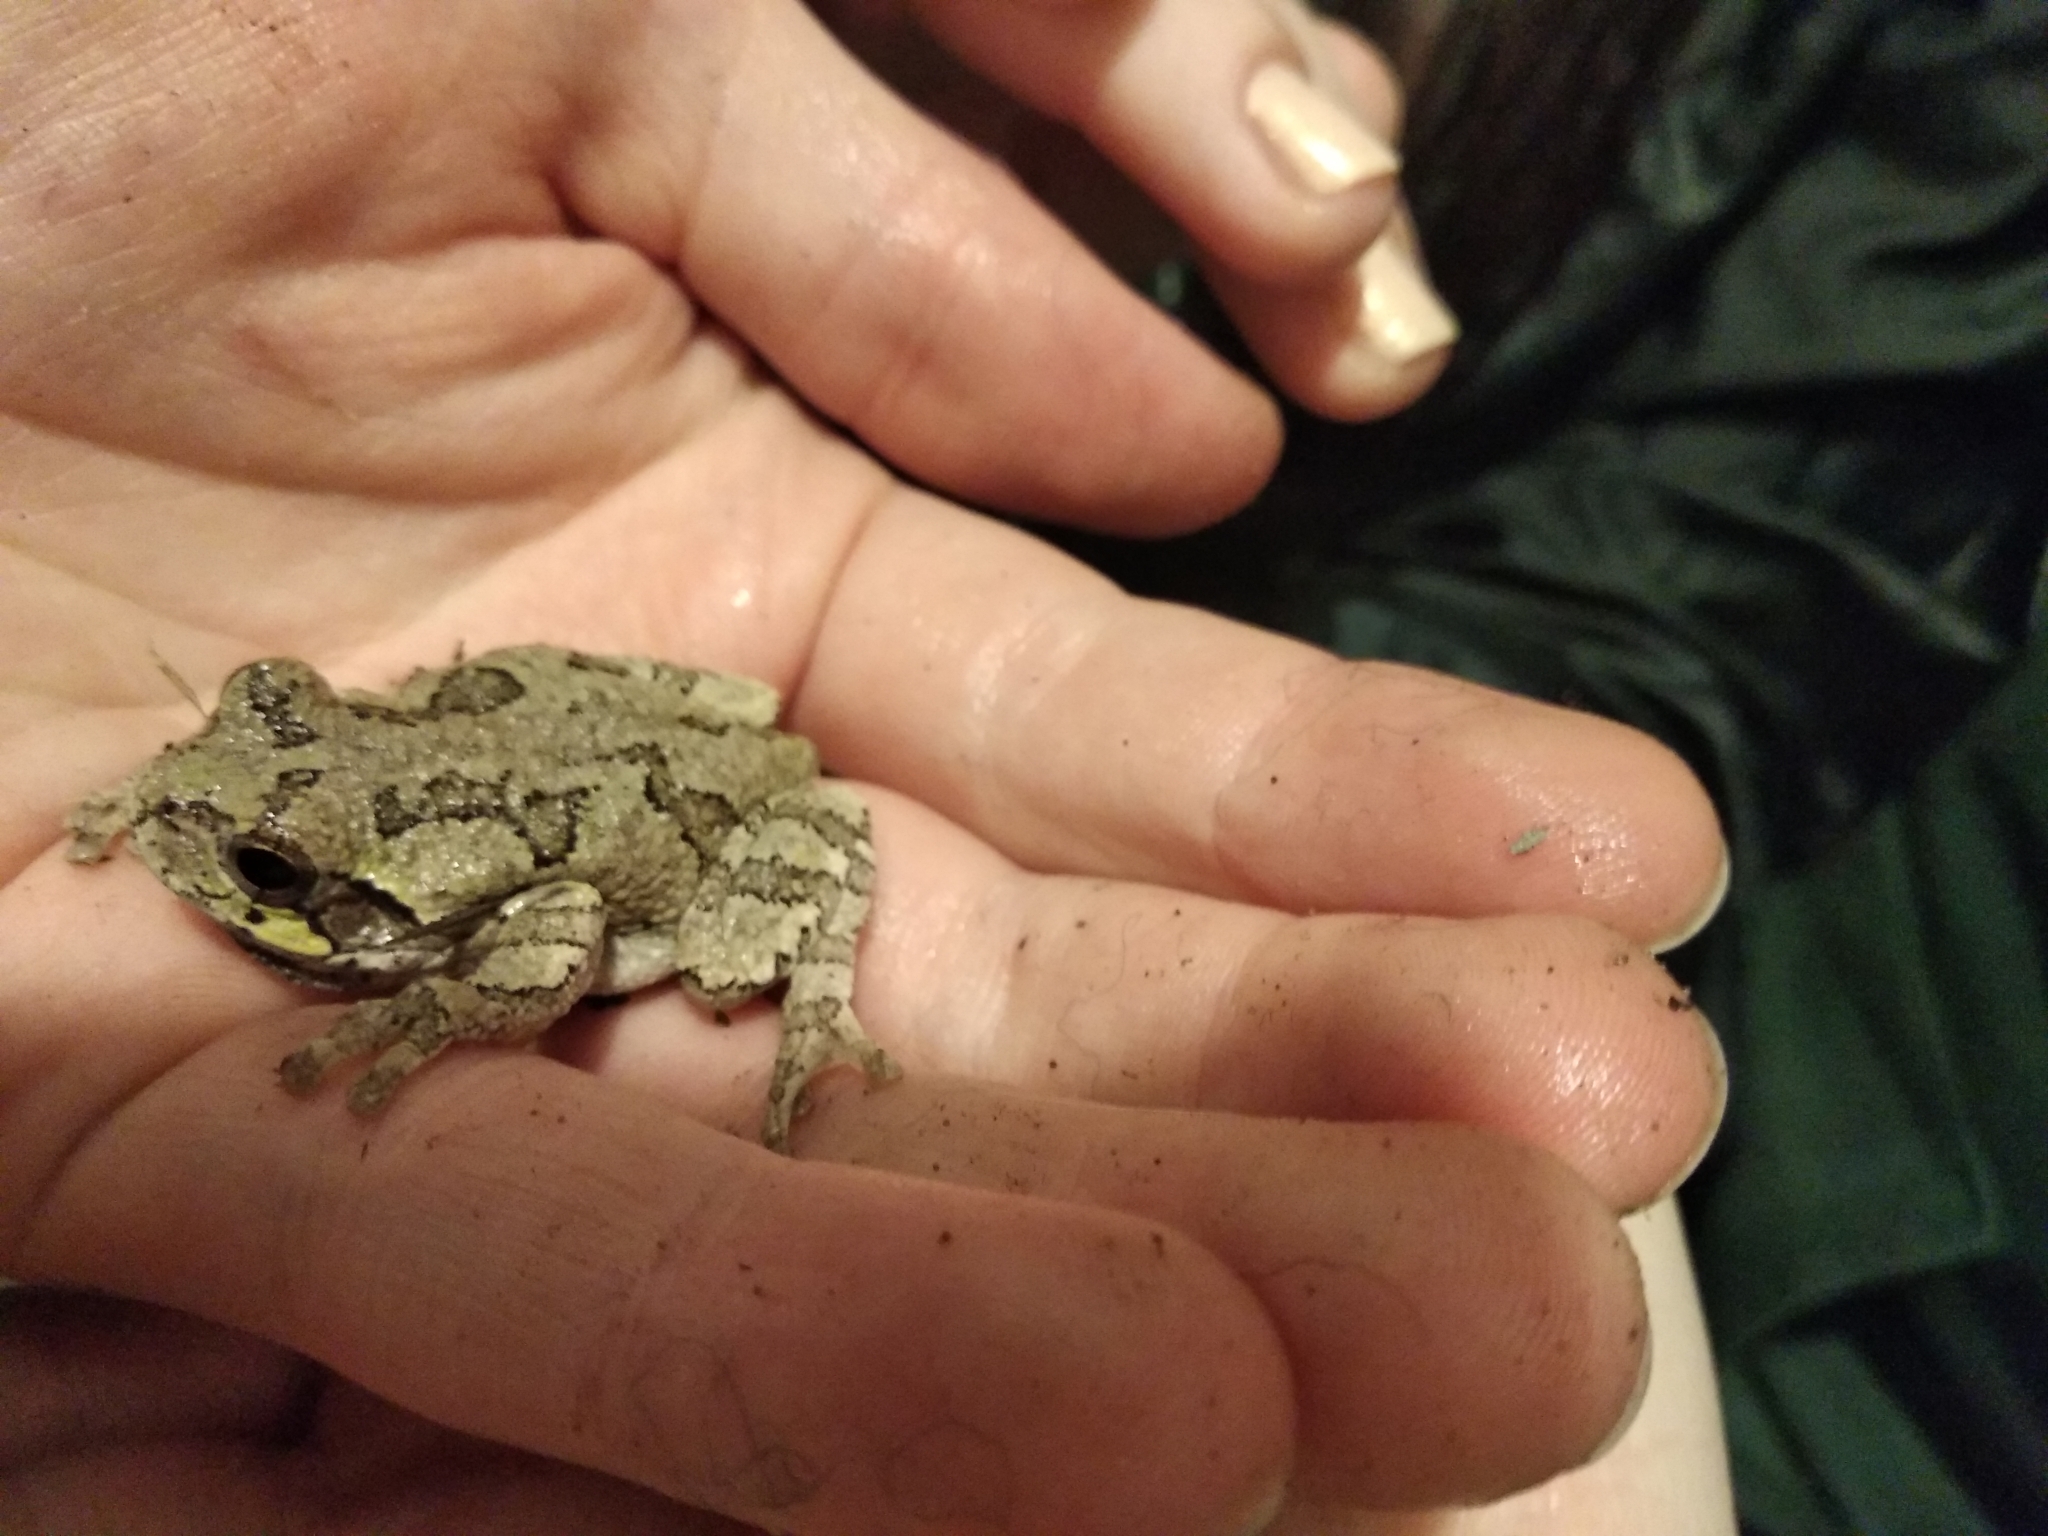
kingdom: Animalia
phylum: Chordata
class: Amphibia
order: Anura
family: Hylidae
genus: Hyla
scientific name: Hyla
